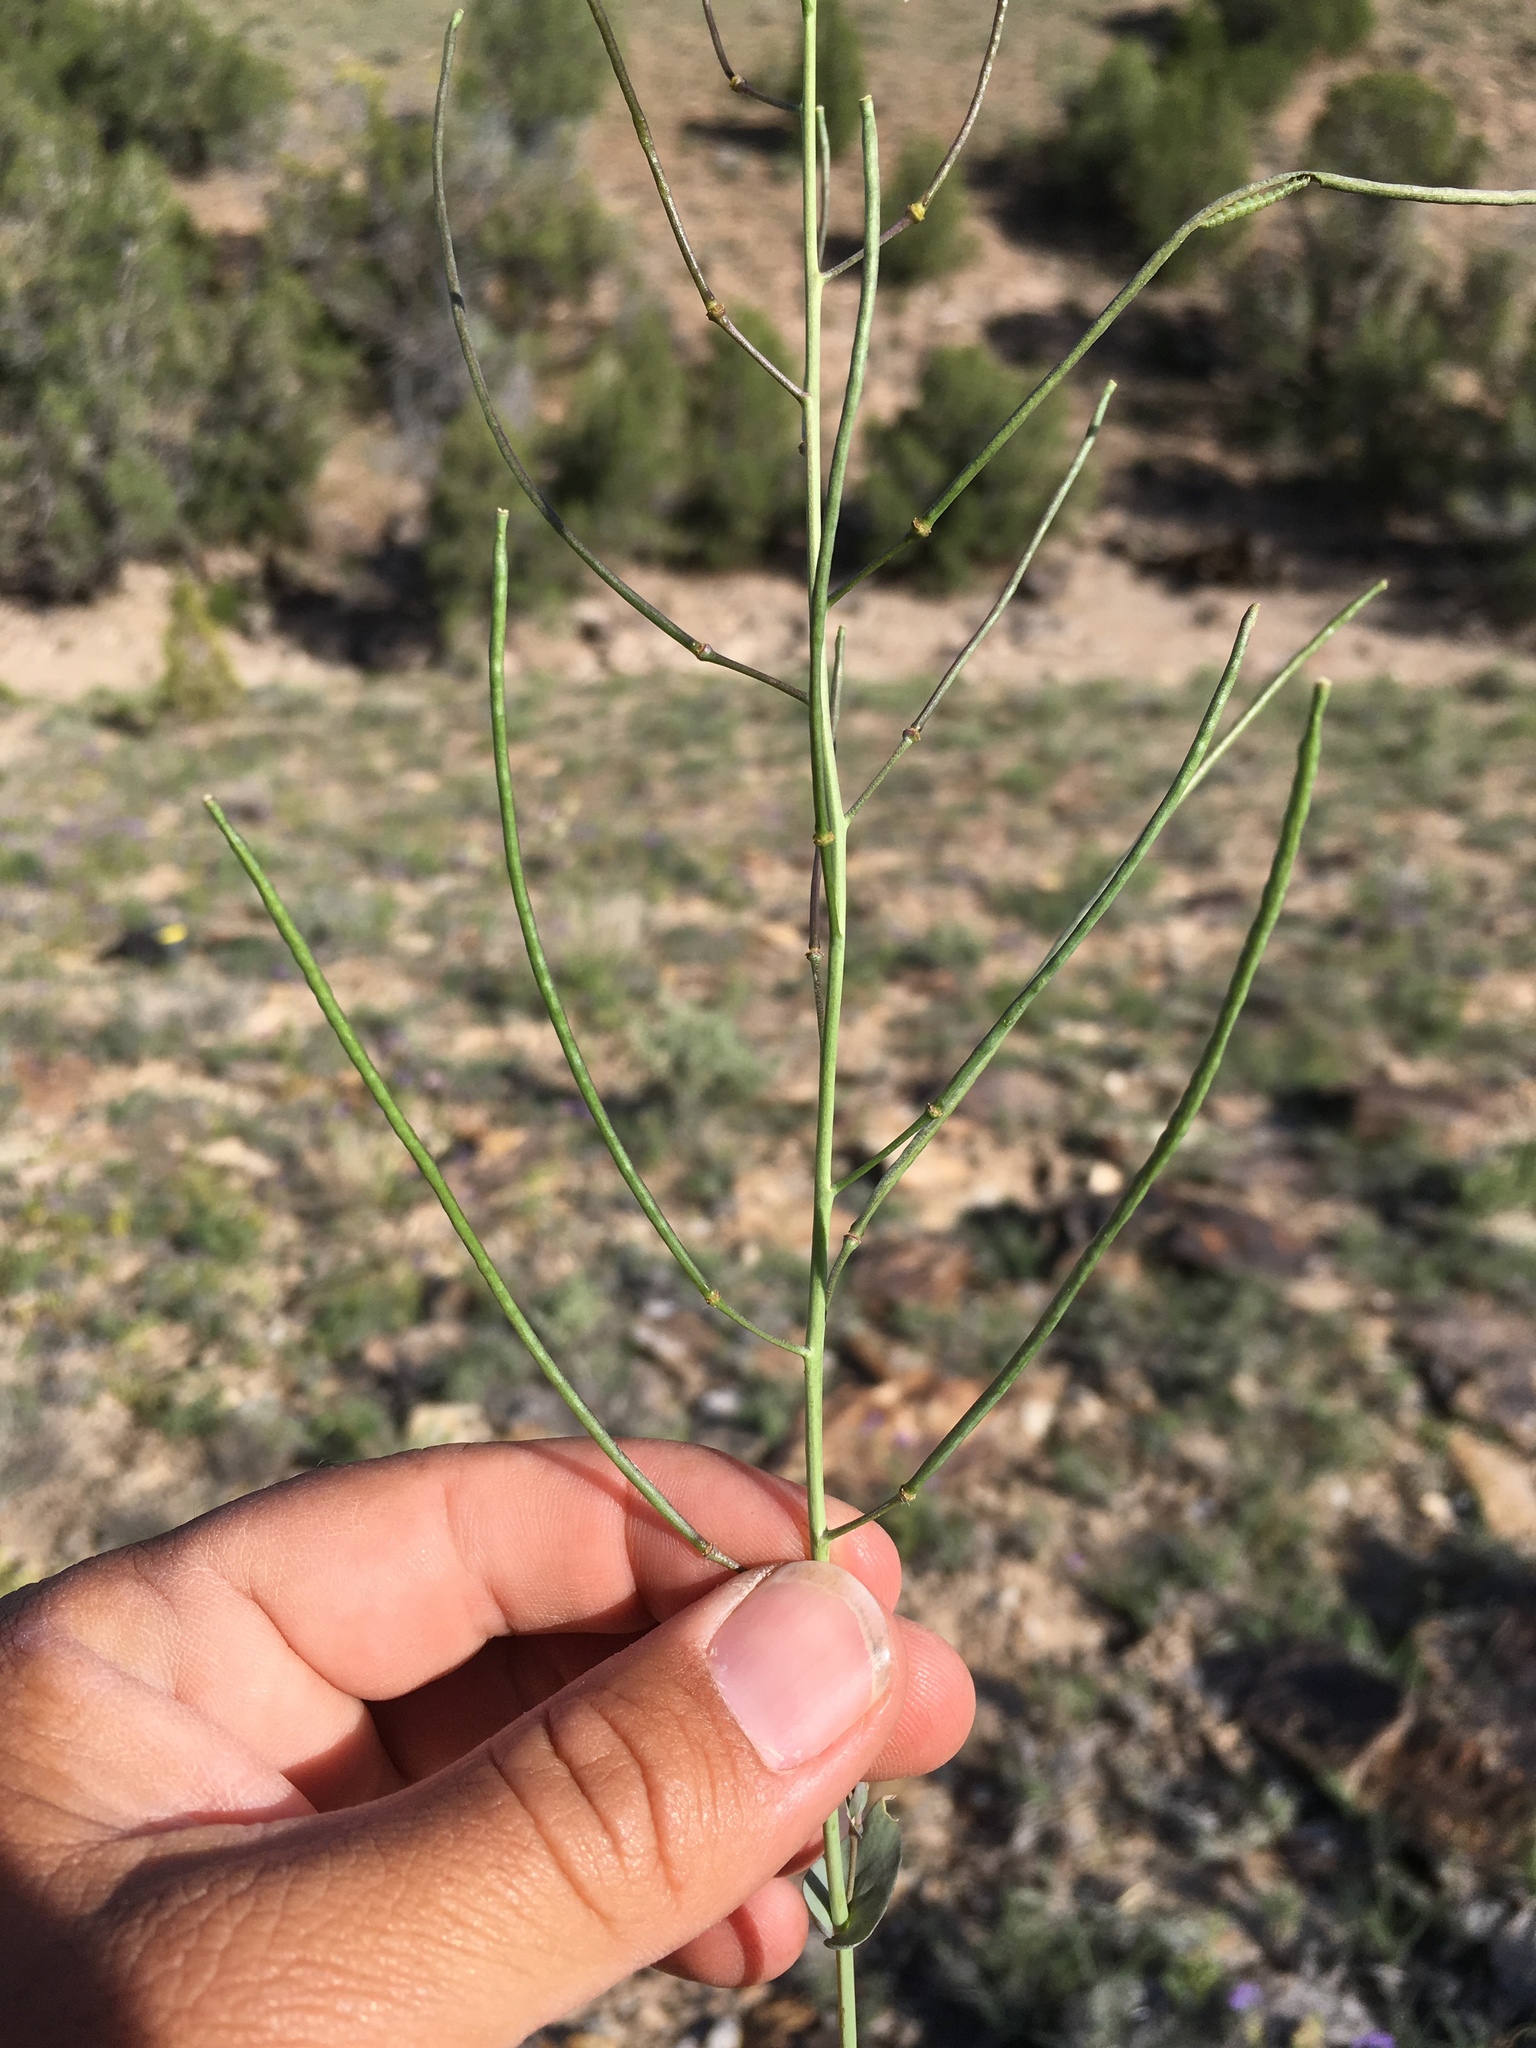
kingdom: Plantae
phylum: Tracheophyta
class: Magnoliopsida
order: Brassicales
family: Brassicaceae
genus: Thelypodiopsis
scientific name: Thelypodiopsis elegans
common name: Elegant thelypody
